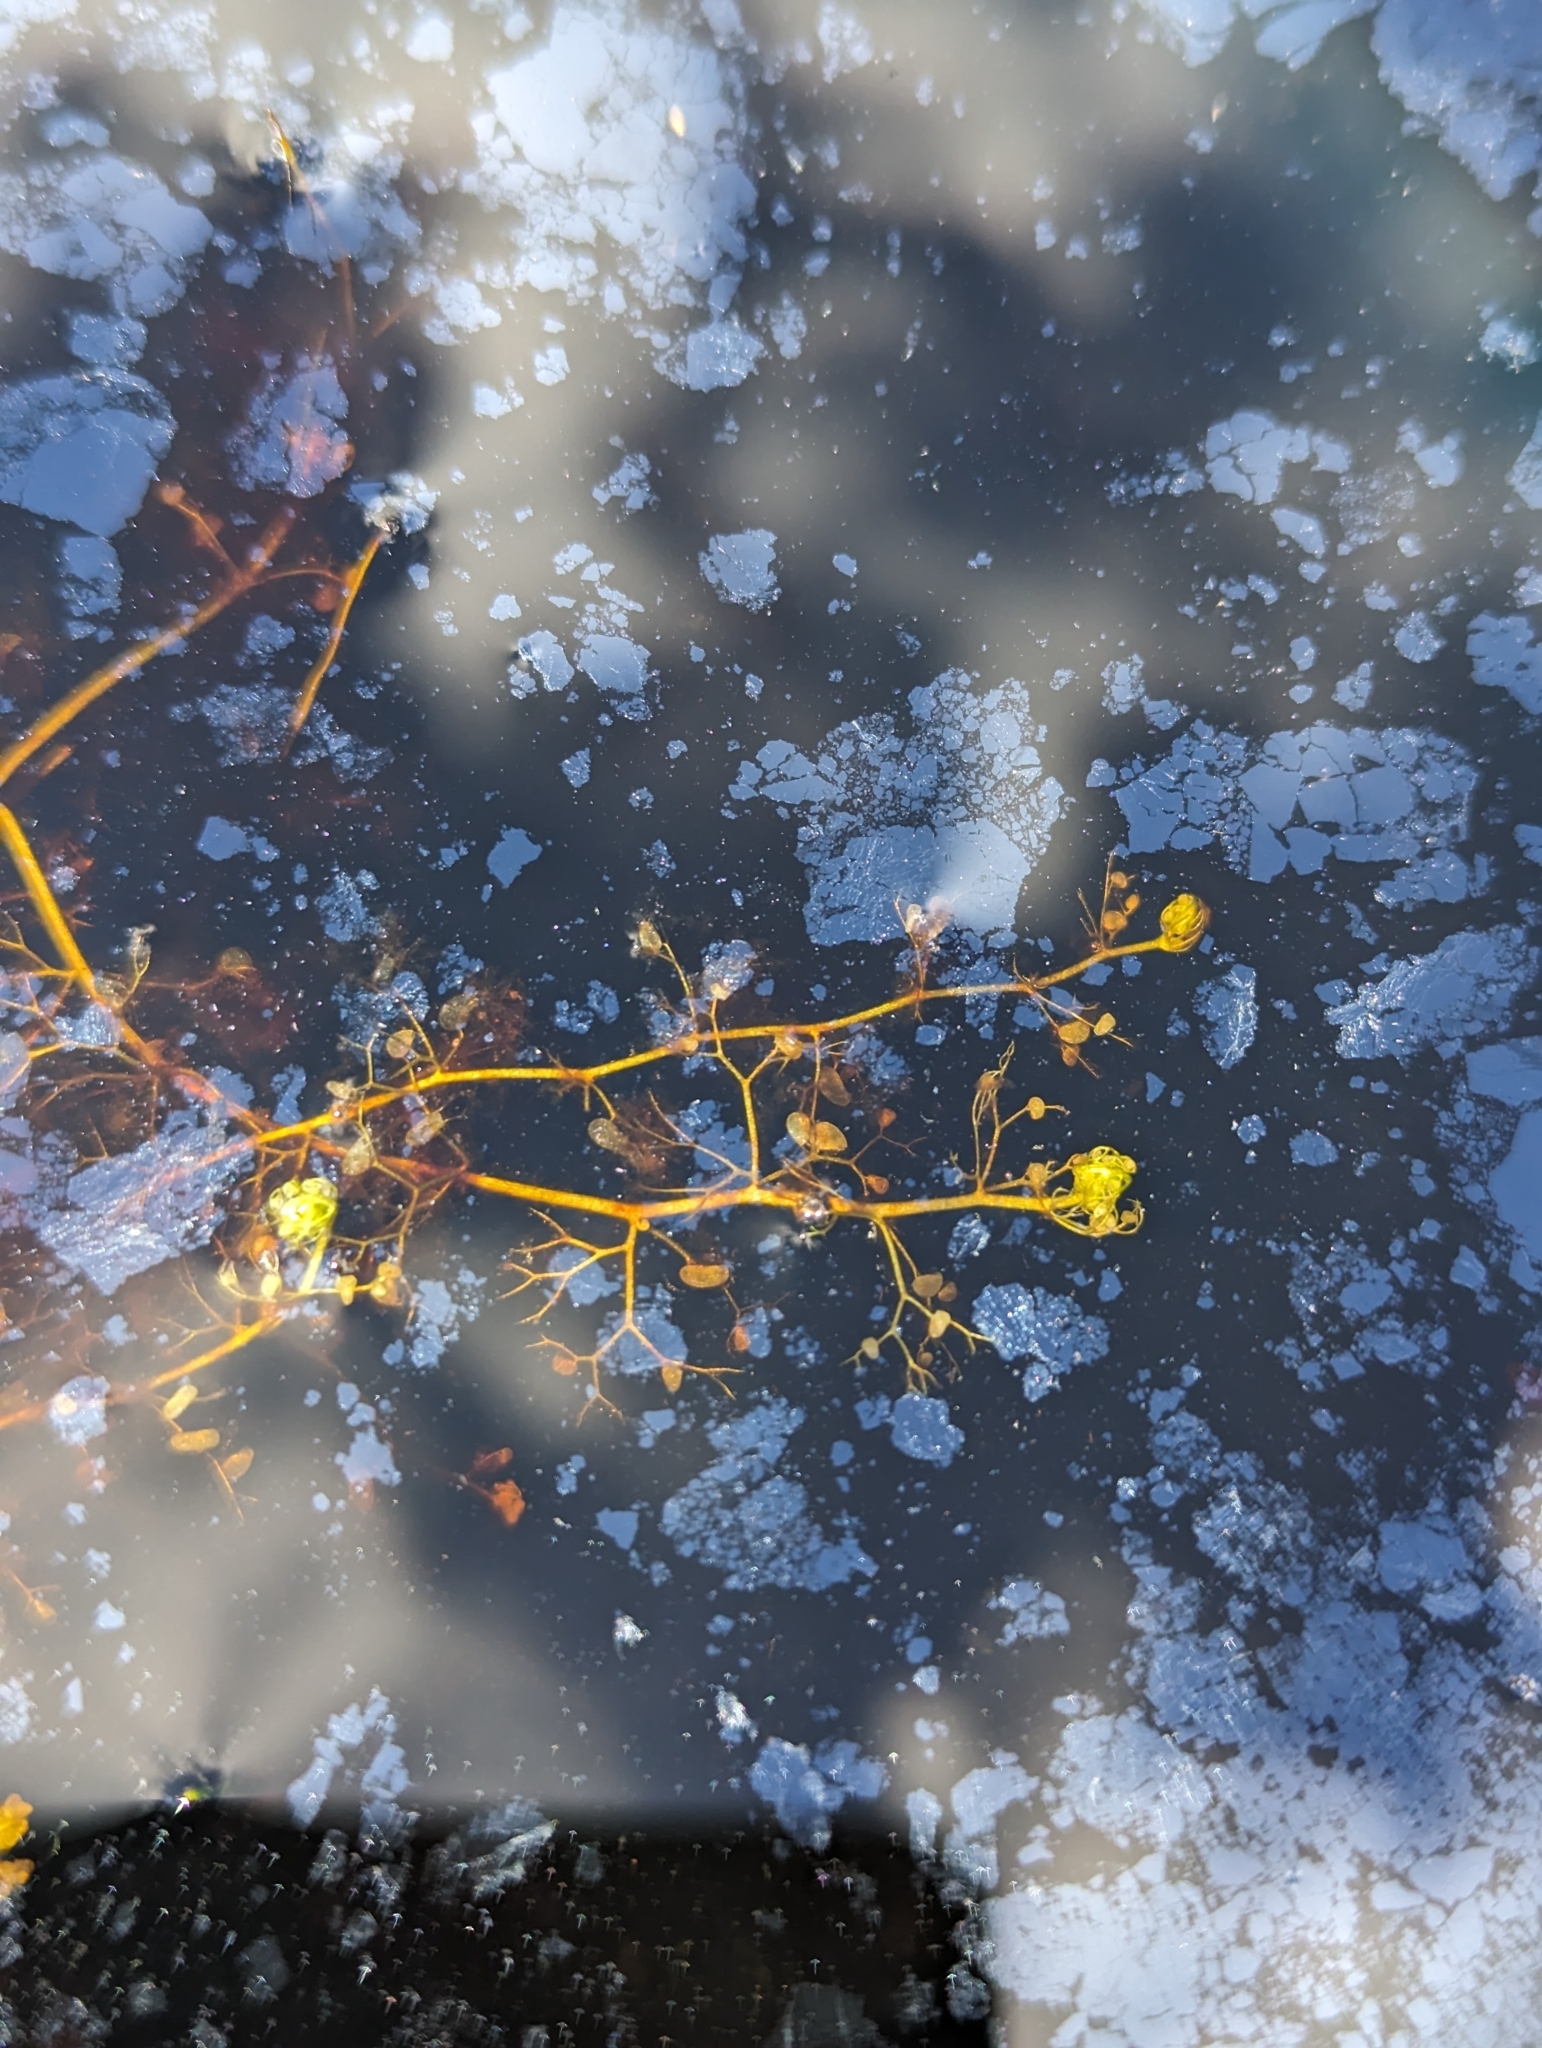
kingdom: Plantae
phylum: Tracheophyta
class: Magnoliopsida
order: Lamiales
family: Lentibulariaceae
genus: Utricularia
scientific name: Utricularia minor
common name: Lesser bladderwort
